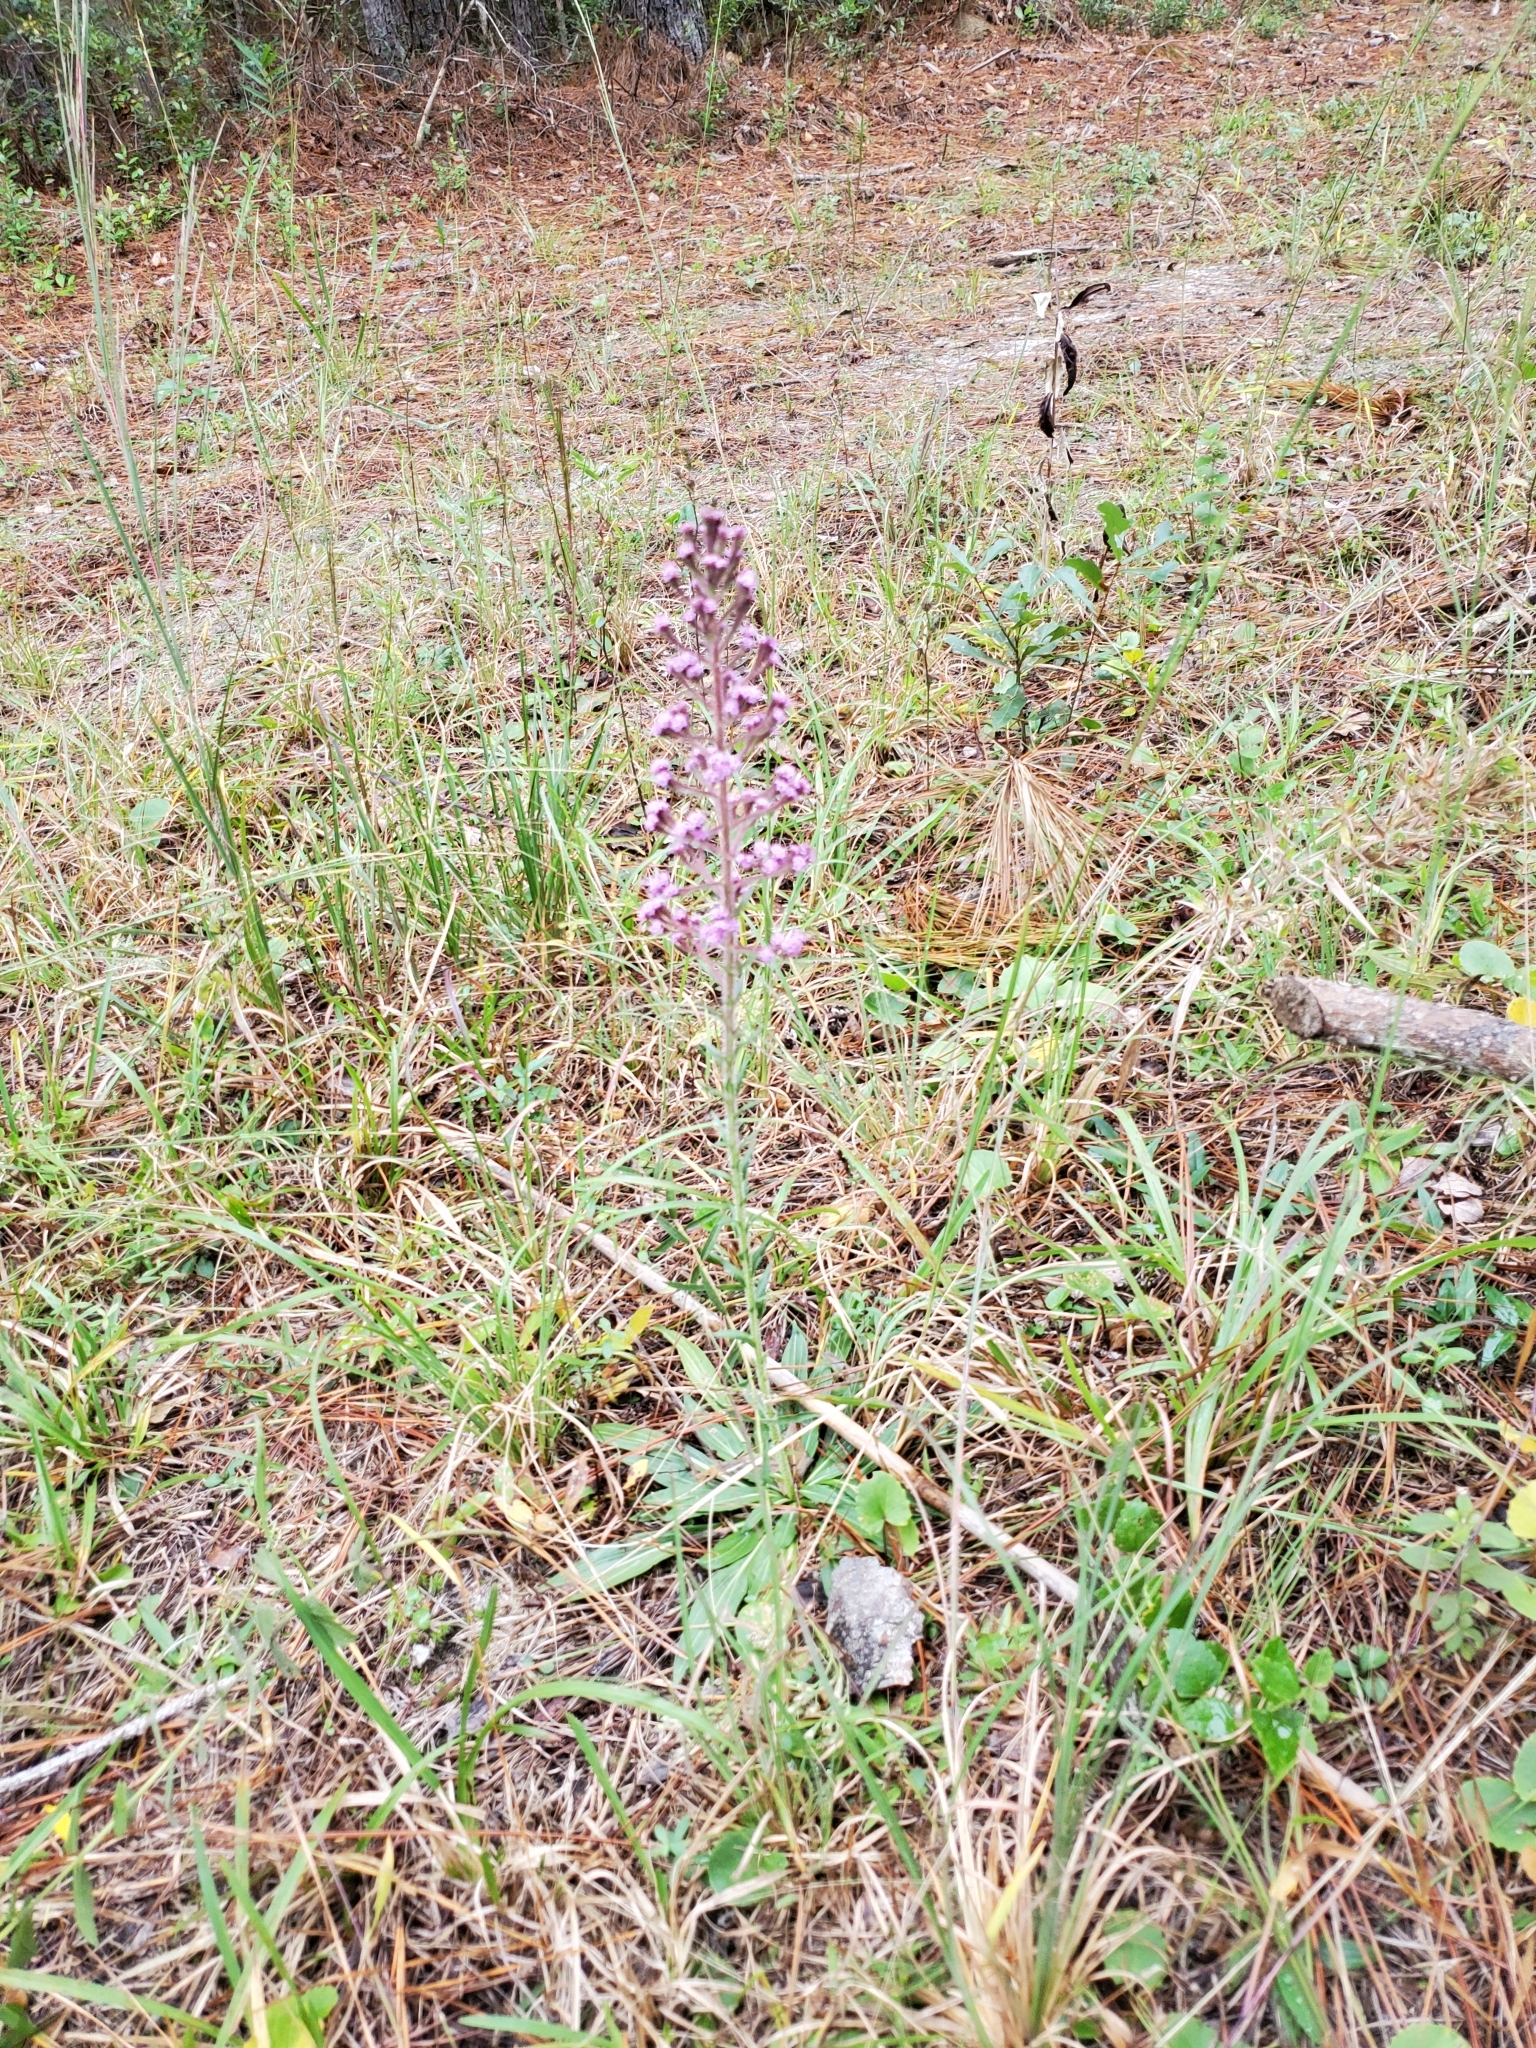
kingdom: Plantae
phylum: Tracheophyta
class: Magnoliopsida
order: Asterales
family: Asteraceae
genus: Carphephorus
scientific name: Carphephorus paniculatus
